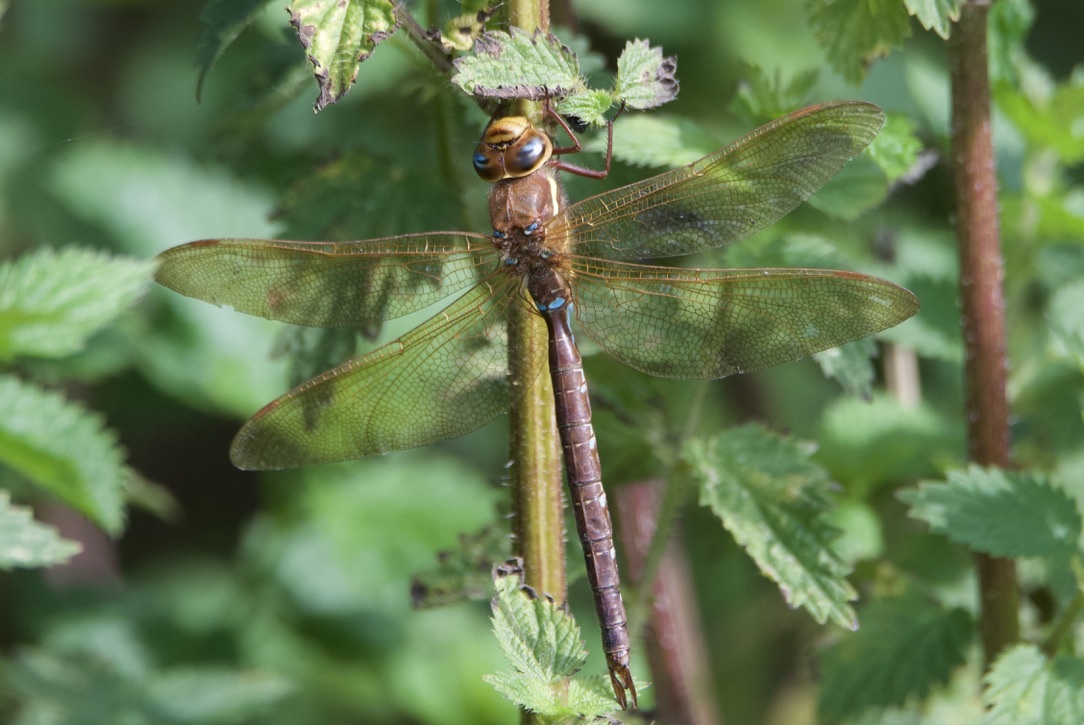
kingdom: Animalia
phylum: Arthropoda
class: Insecta
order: Odonata
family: Aeshnidae
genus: Aeshna
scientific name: Aeshna grandis
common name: Brown hawker
